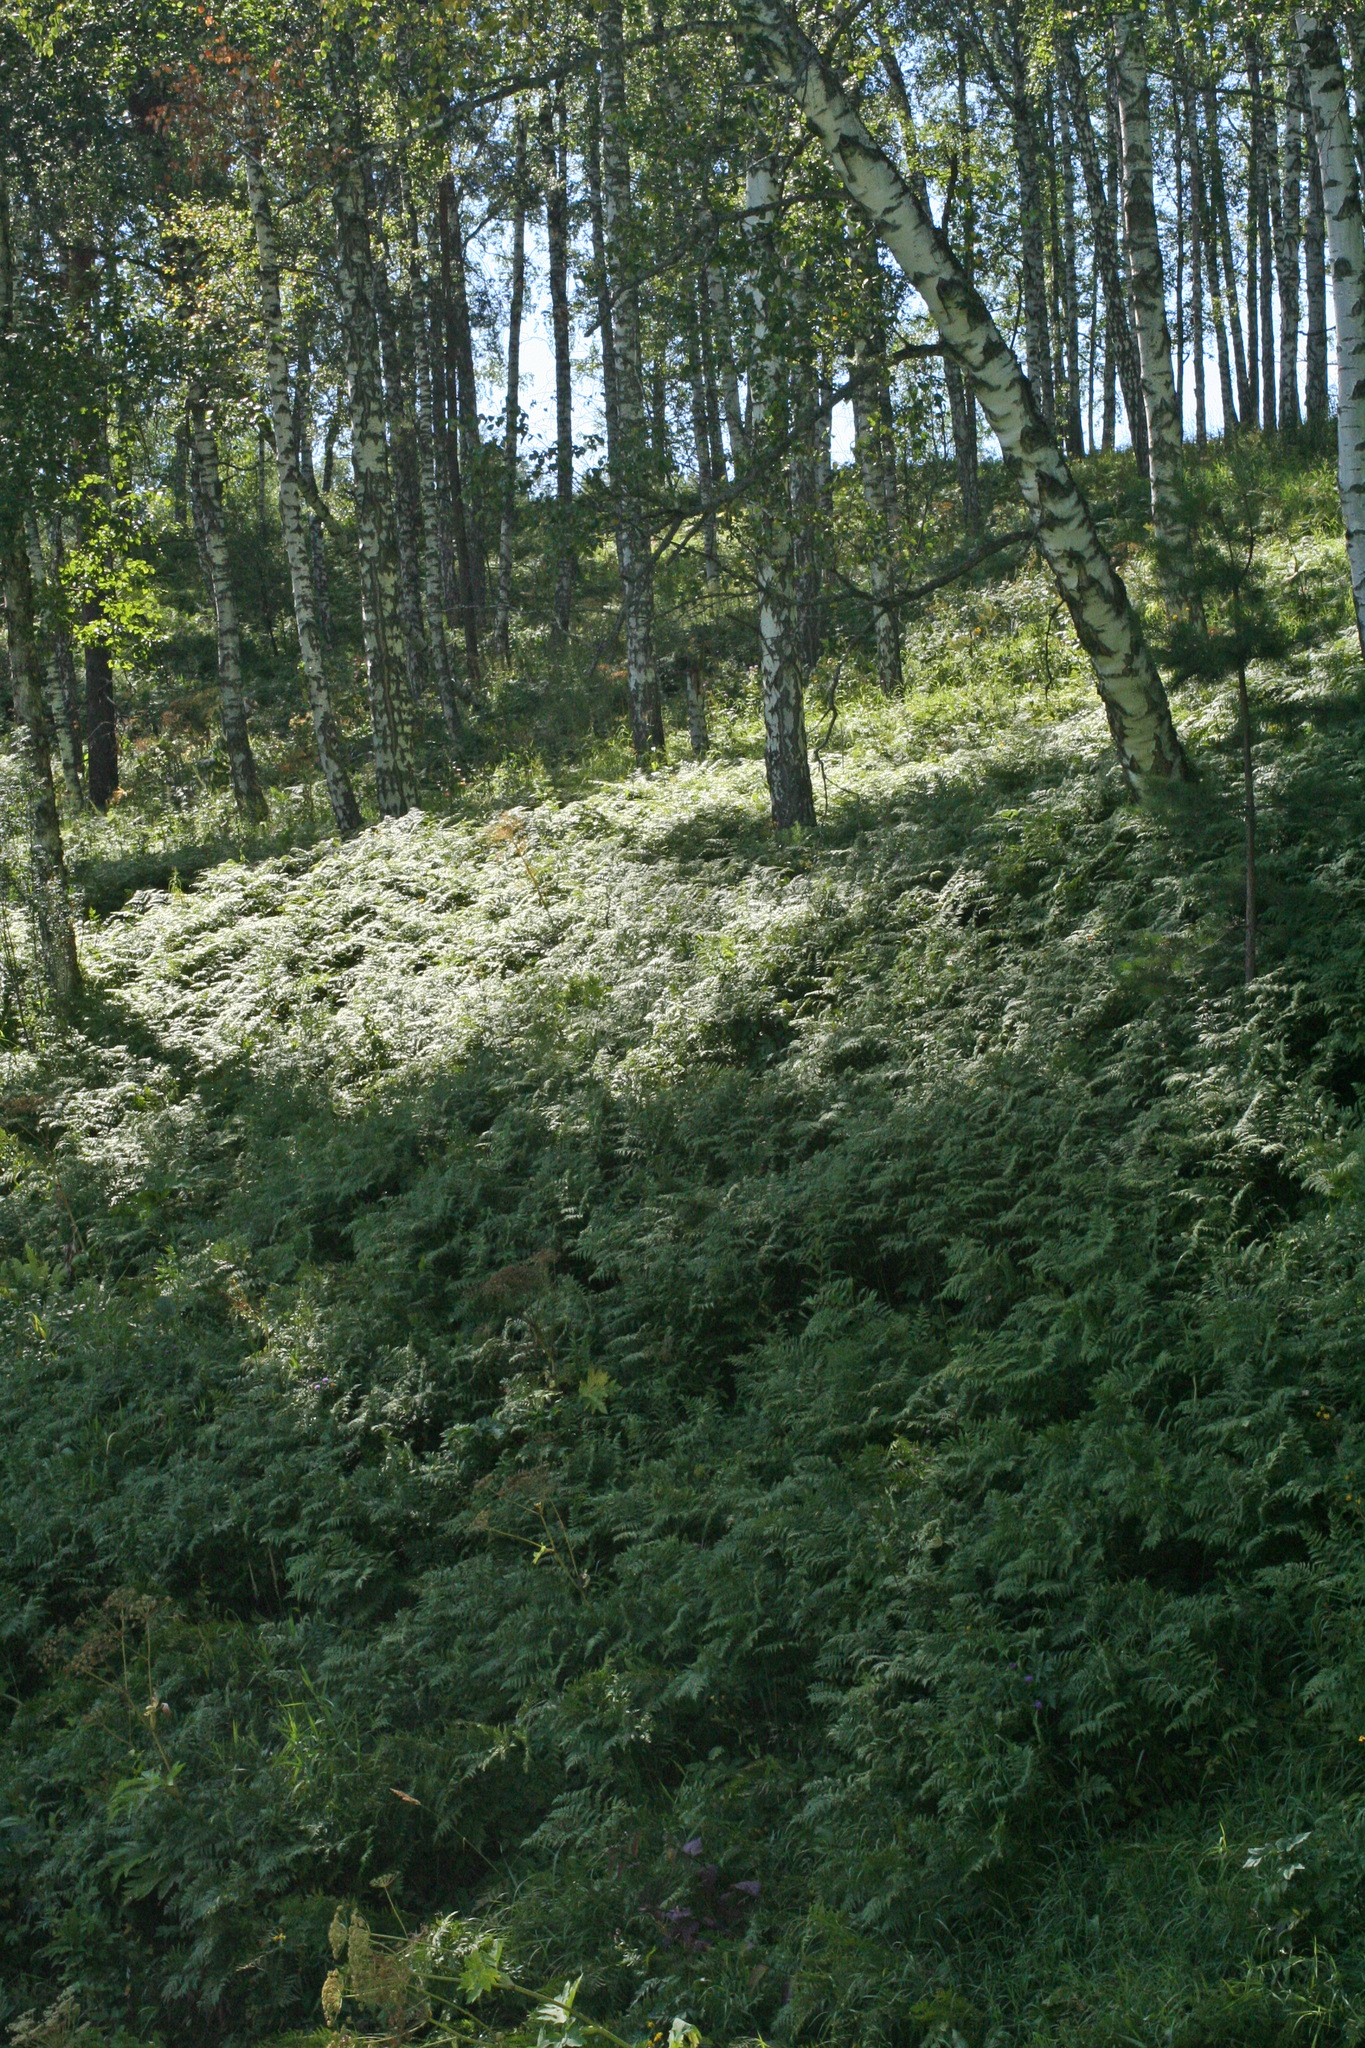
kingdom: Plantae
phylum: Tracheophyta
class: Polypodiopsida
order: Polypodiales
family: Dennstaedtiaceae
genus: Pteridium
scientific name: Pteridium aquilinum
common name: Bracken
